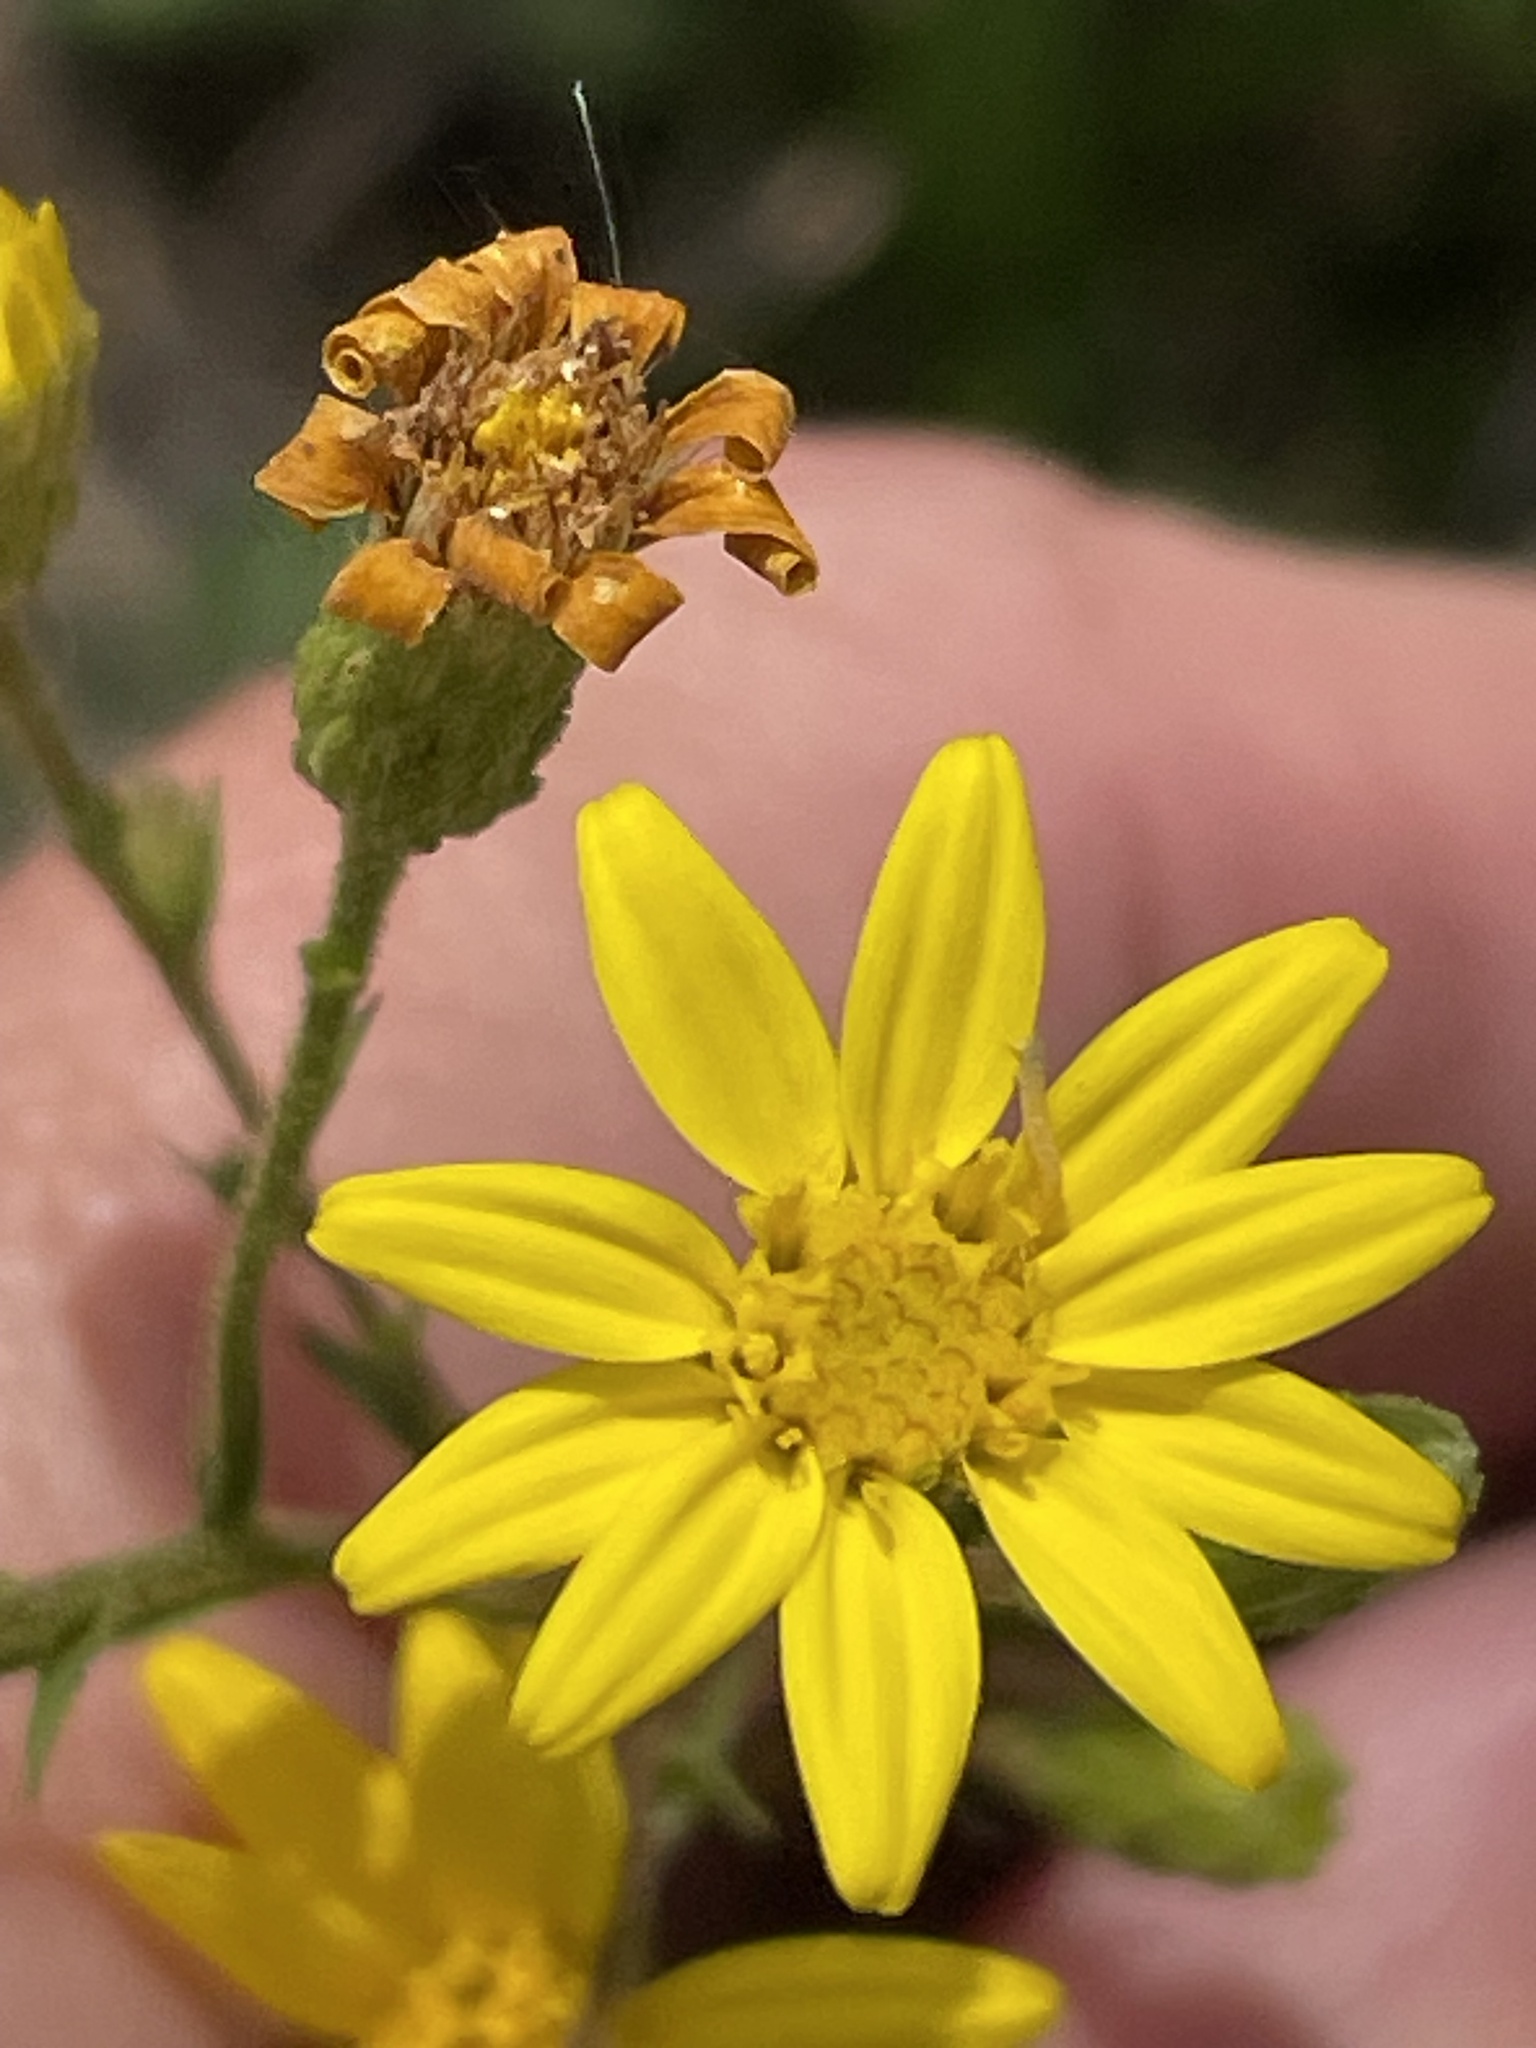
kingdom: Plantae
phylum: Tracheophyta
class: Magnoliopsida
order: Asterales
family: Asteraceae
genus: Pityopsis
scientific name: Pityopsis aspera
